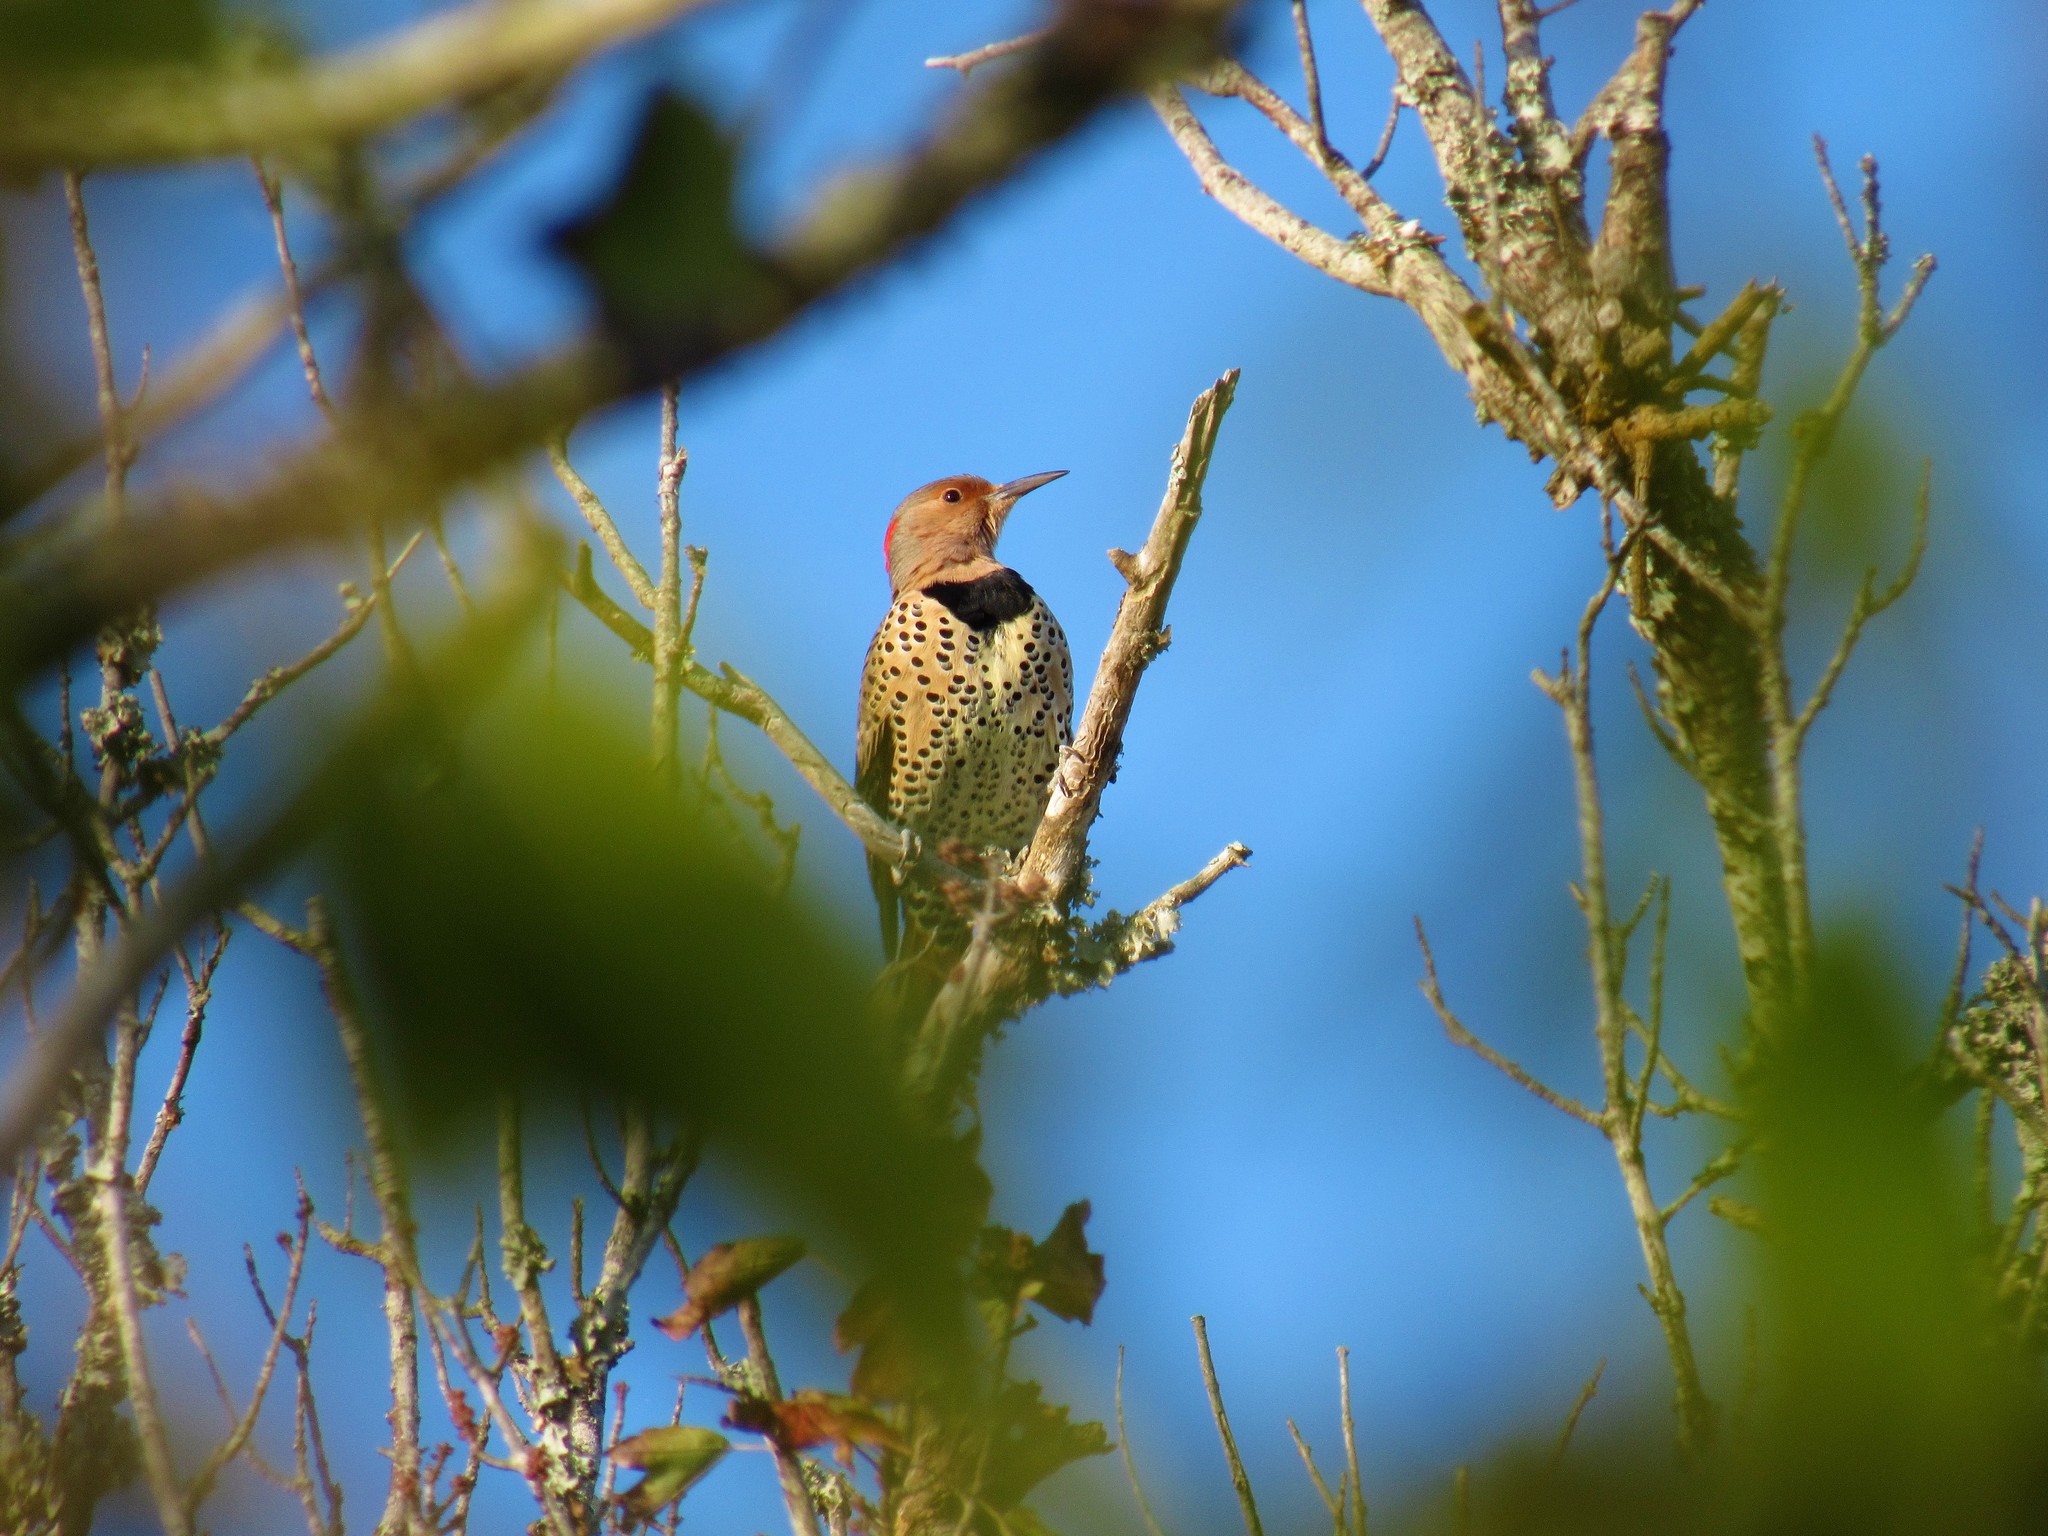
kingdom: Animalia
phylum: Chordata
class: Aves
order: Piciformes
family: Picidae
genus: Colaptes
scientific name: Colaptes auratus
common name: Northern flicker
